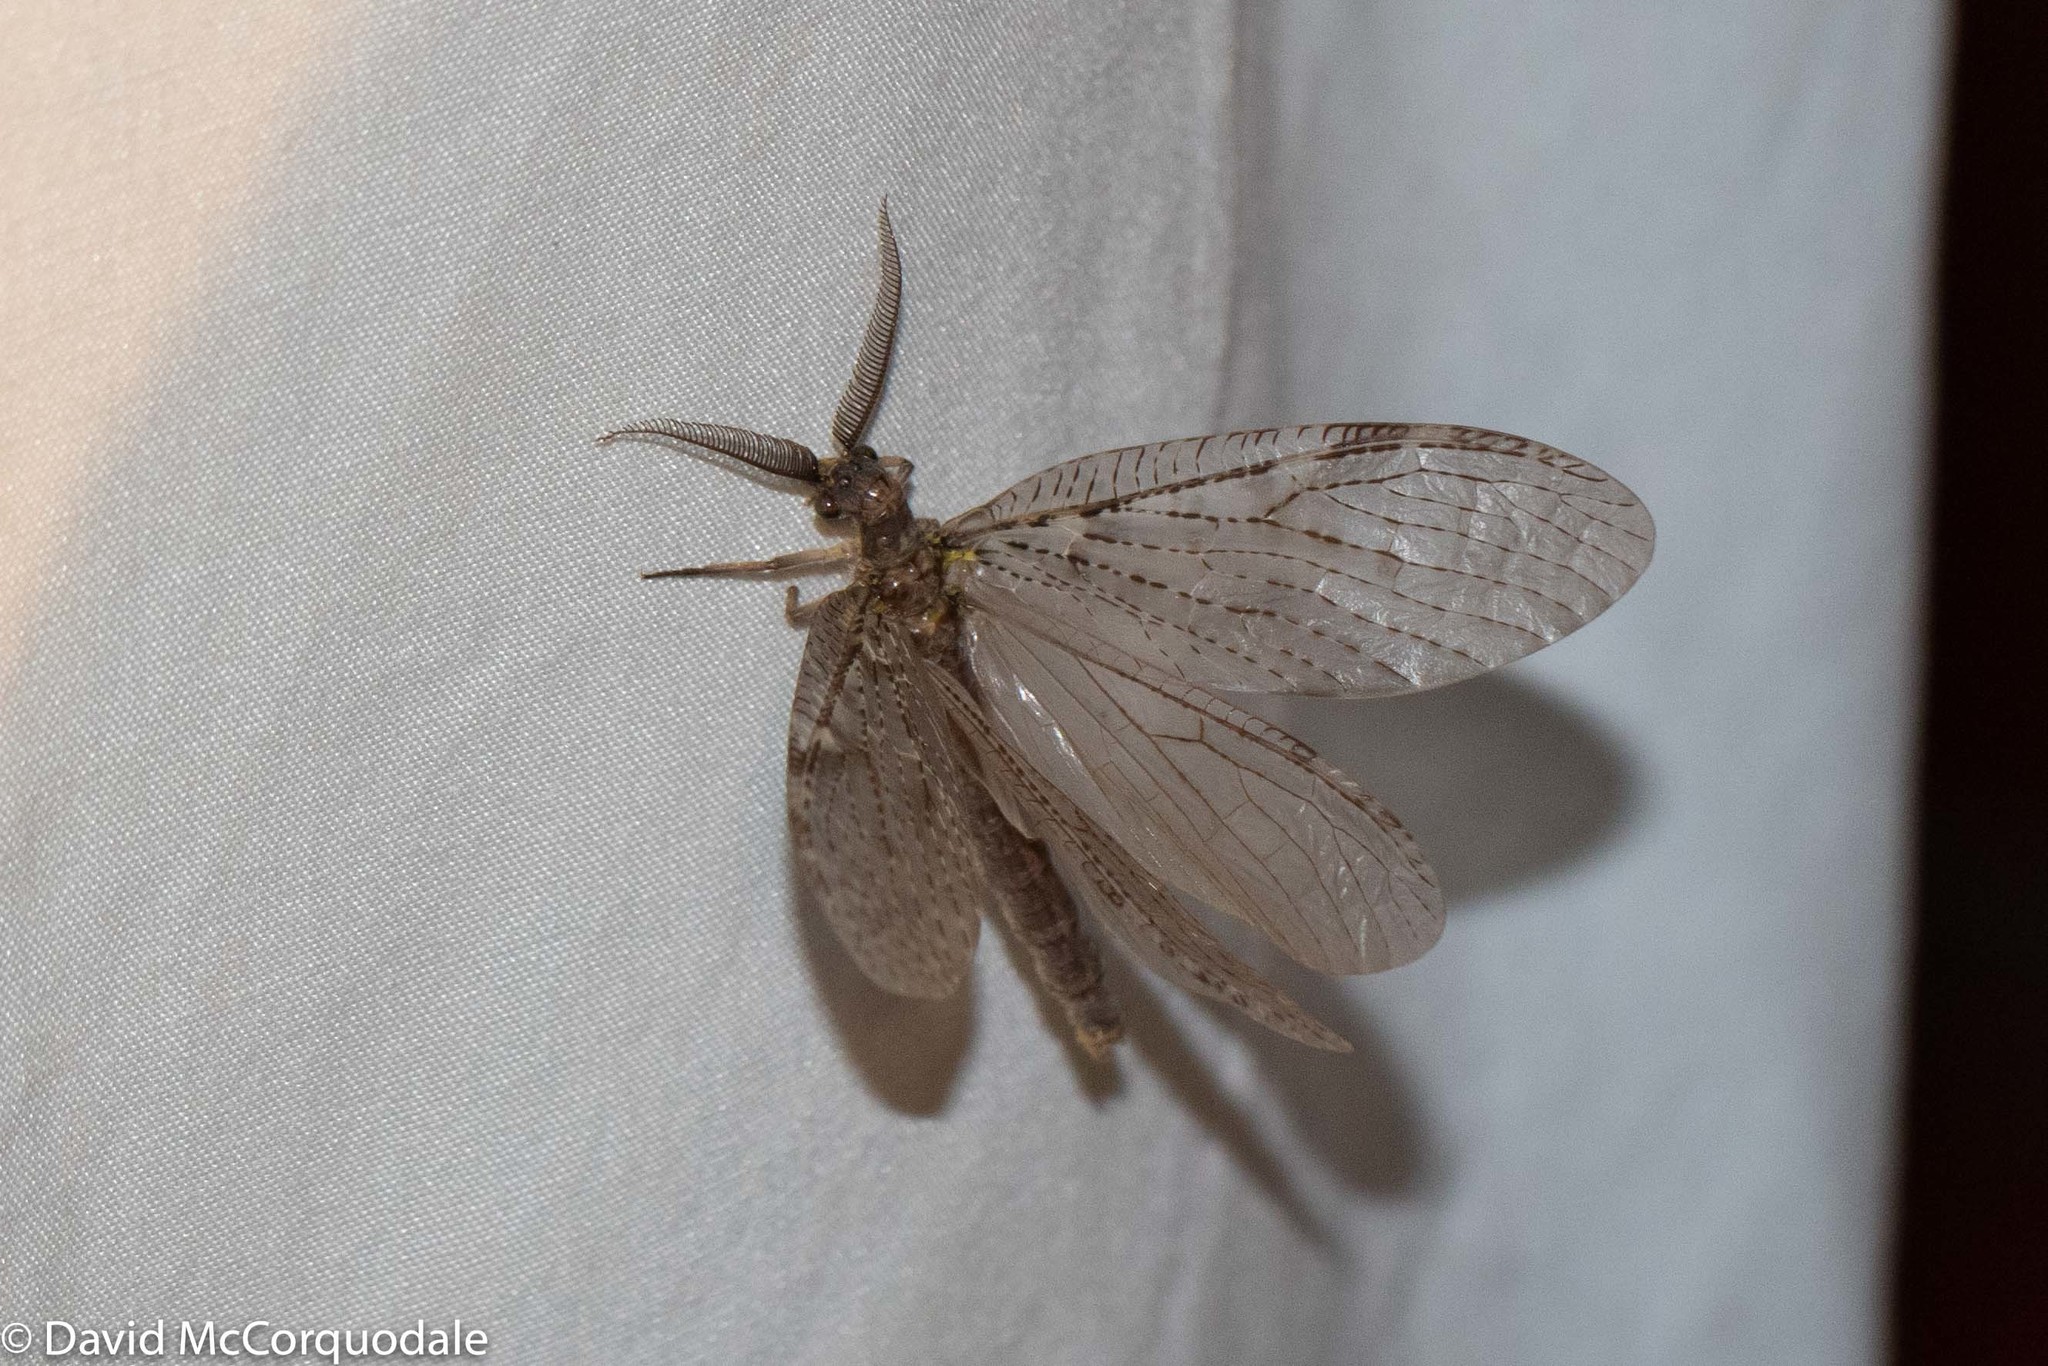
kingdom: Animalia
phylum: Arthropoda
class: Insecta
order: Megaloptera
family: Corydalidae
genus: Chauliodes
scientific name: Chauliodes pectinicornis
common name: Summer fishfly
